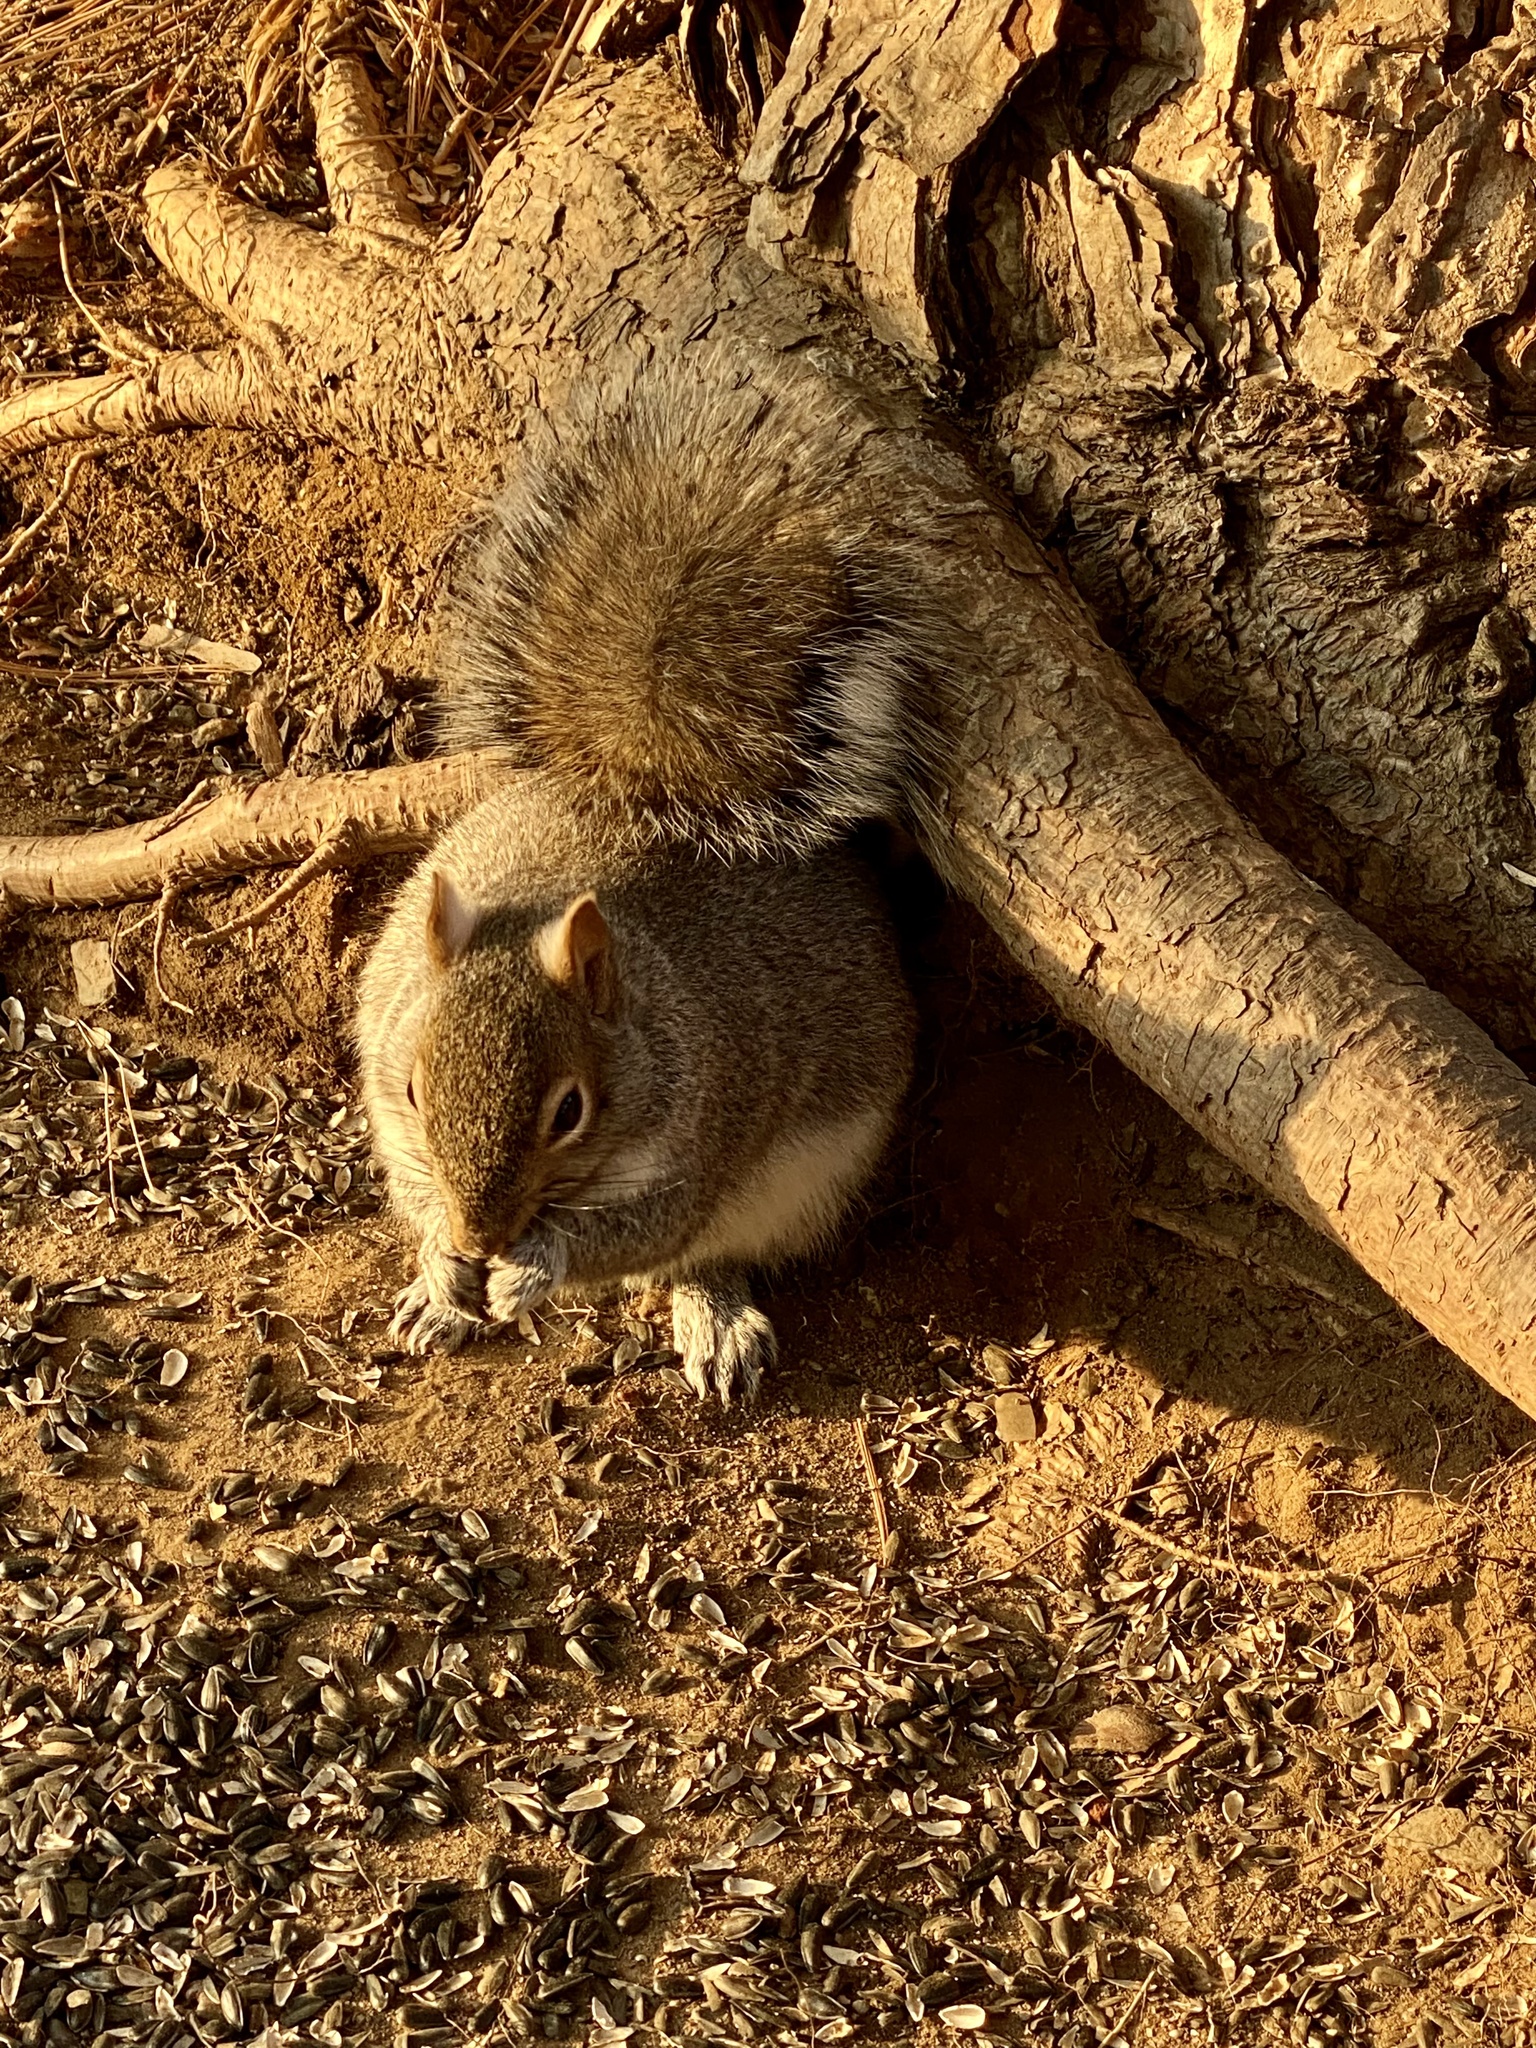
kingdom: Animalia
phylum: Chordata
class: Mammalia
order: Rodentia
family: Sciuridae
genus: Sciurus
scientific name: Sciurus carolinensis
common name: Eastern gray squirrel
